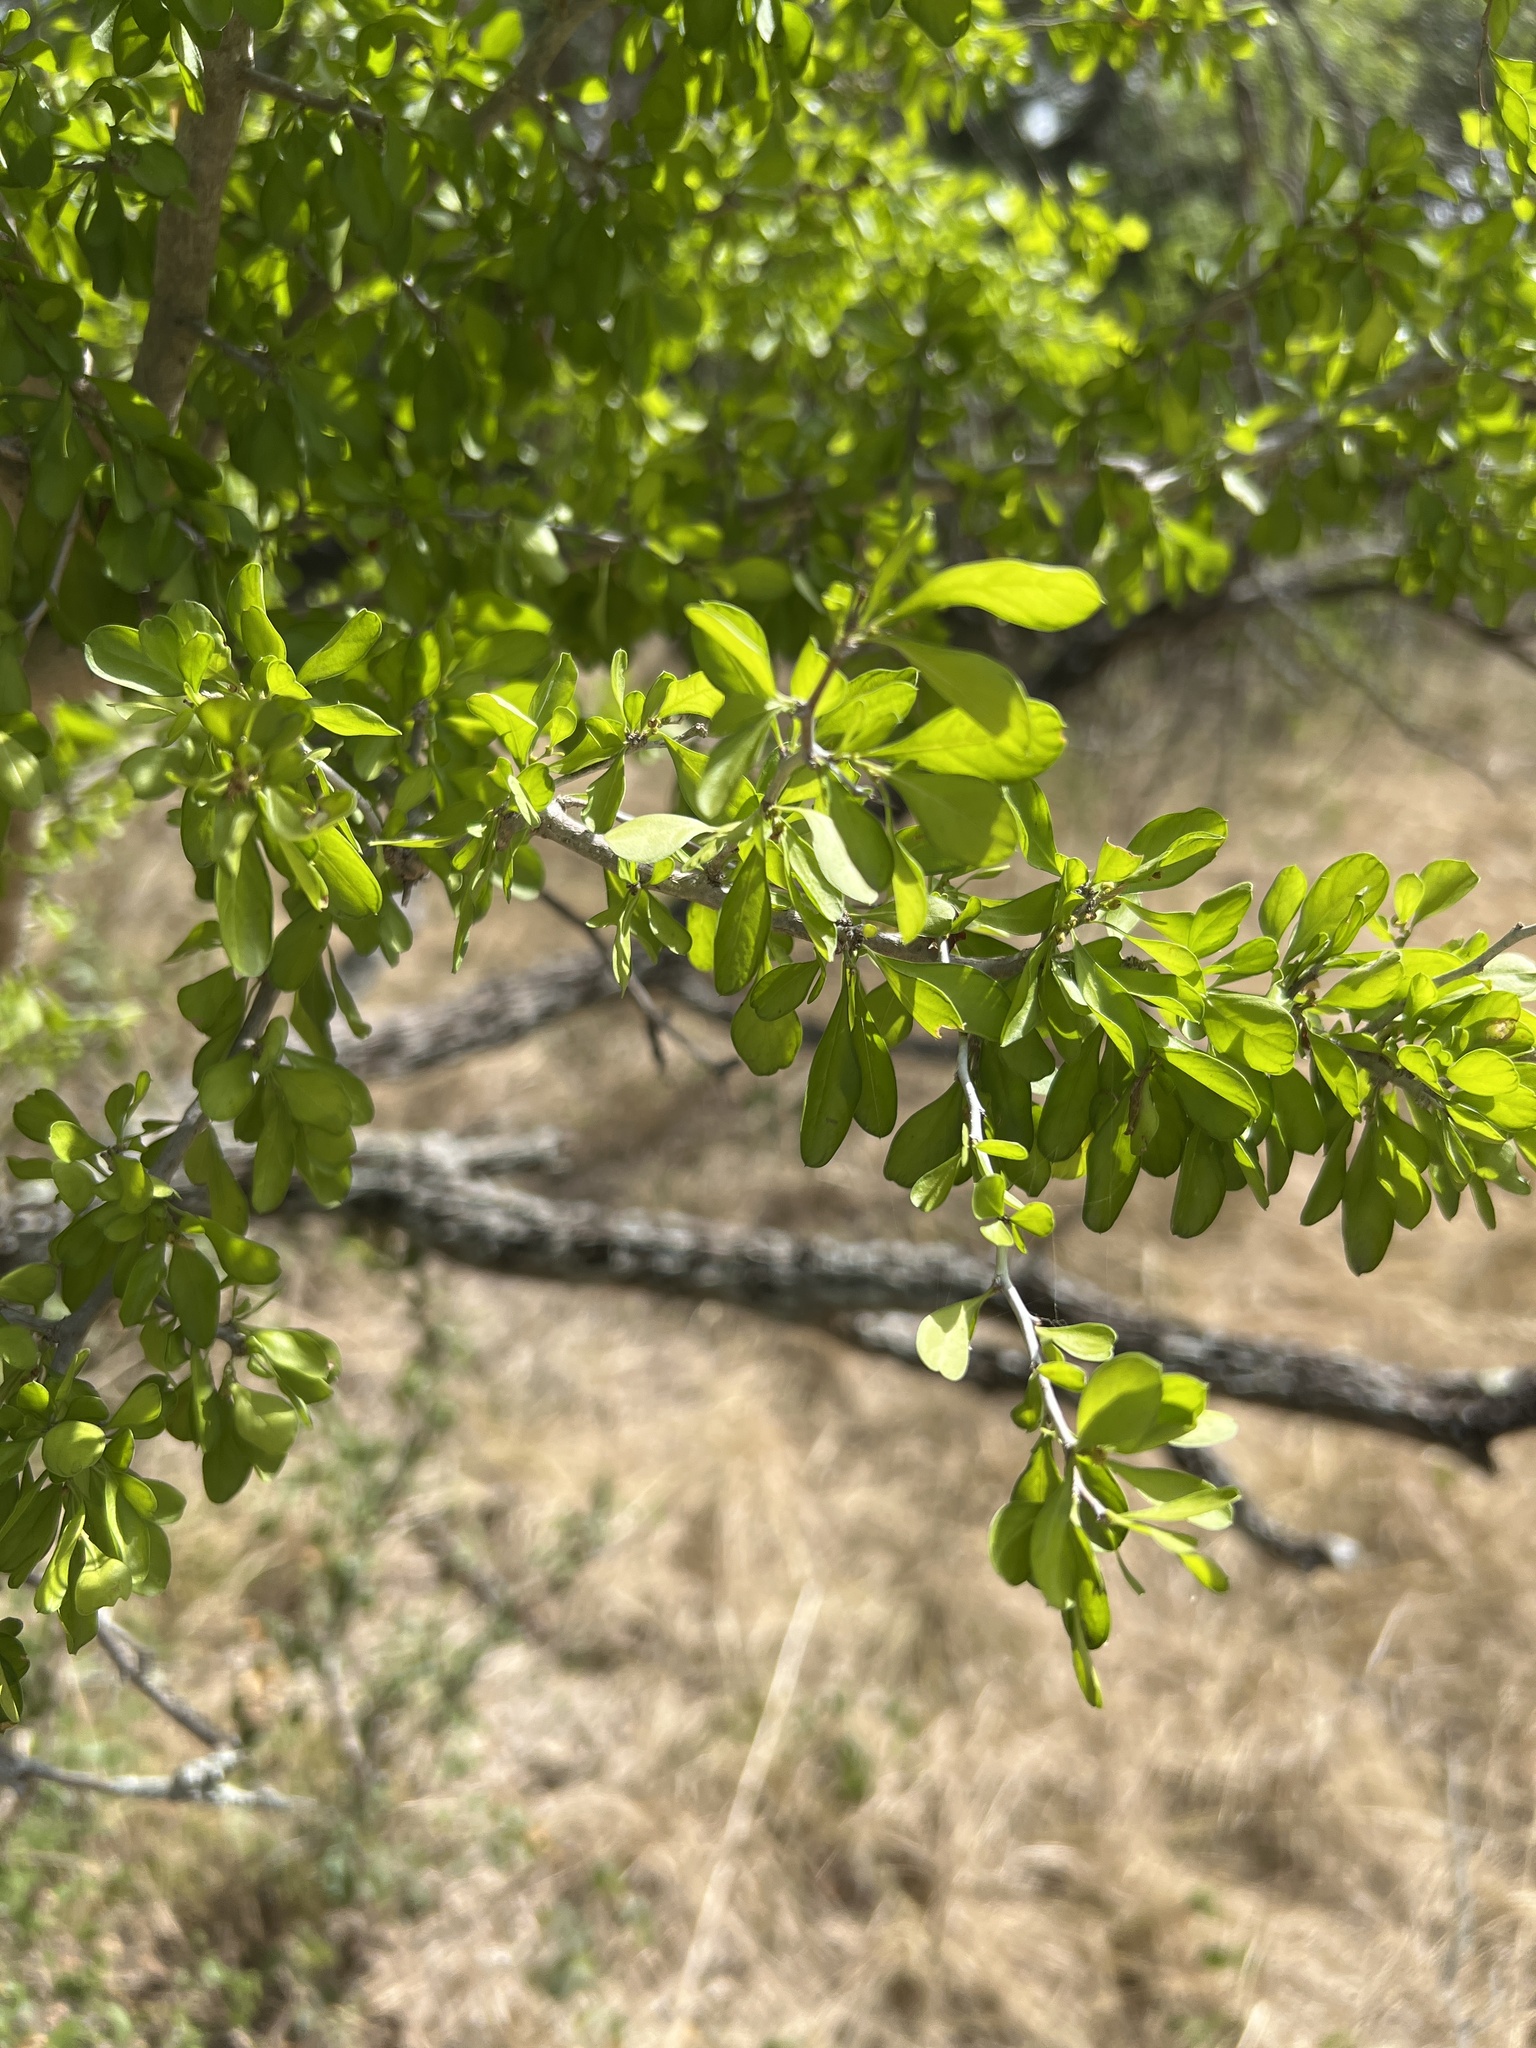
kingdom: Plantae
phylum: Tracheophyta
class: Magnoliopsida
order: Rosales
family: Rhamnaceae
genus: Condalia
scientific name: Condalia hookeri
